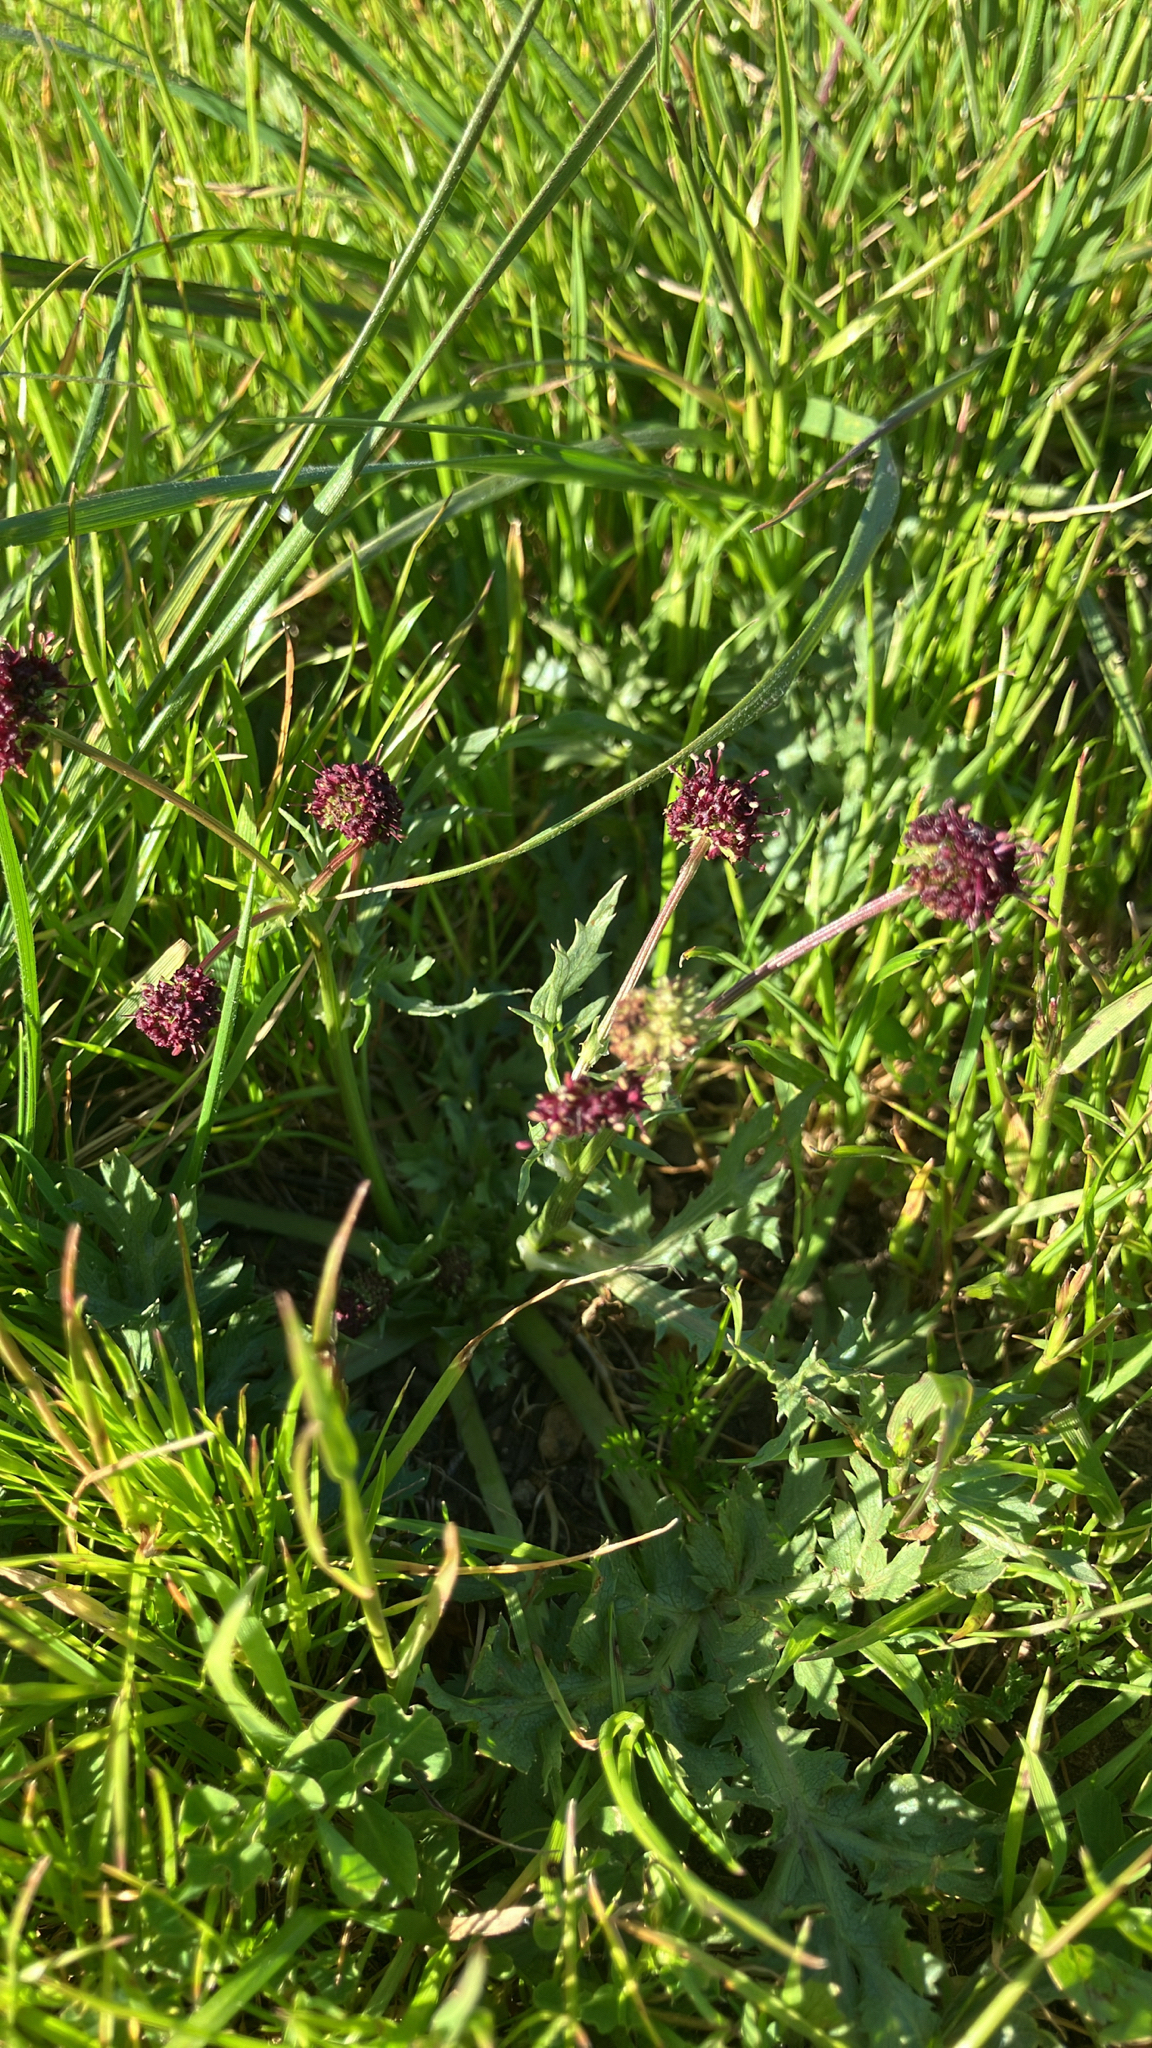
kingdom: Plantae
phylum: Tracheophyta
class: Magnoliopsida
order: Apiales
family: Apiaceae
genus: Sanicula
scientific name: Sanicula bipinnatifida
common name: Shoe-buttons
